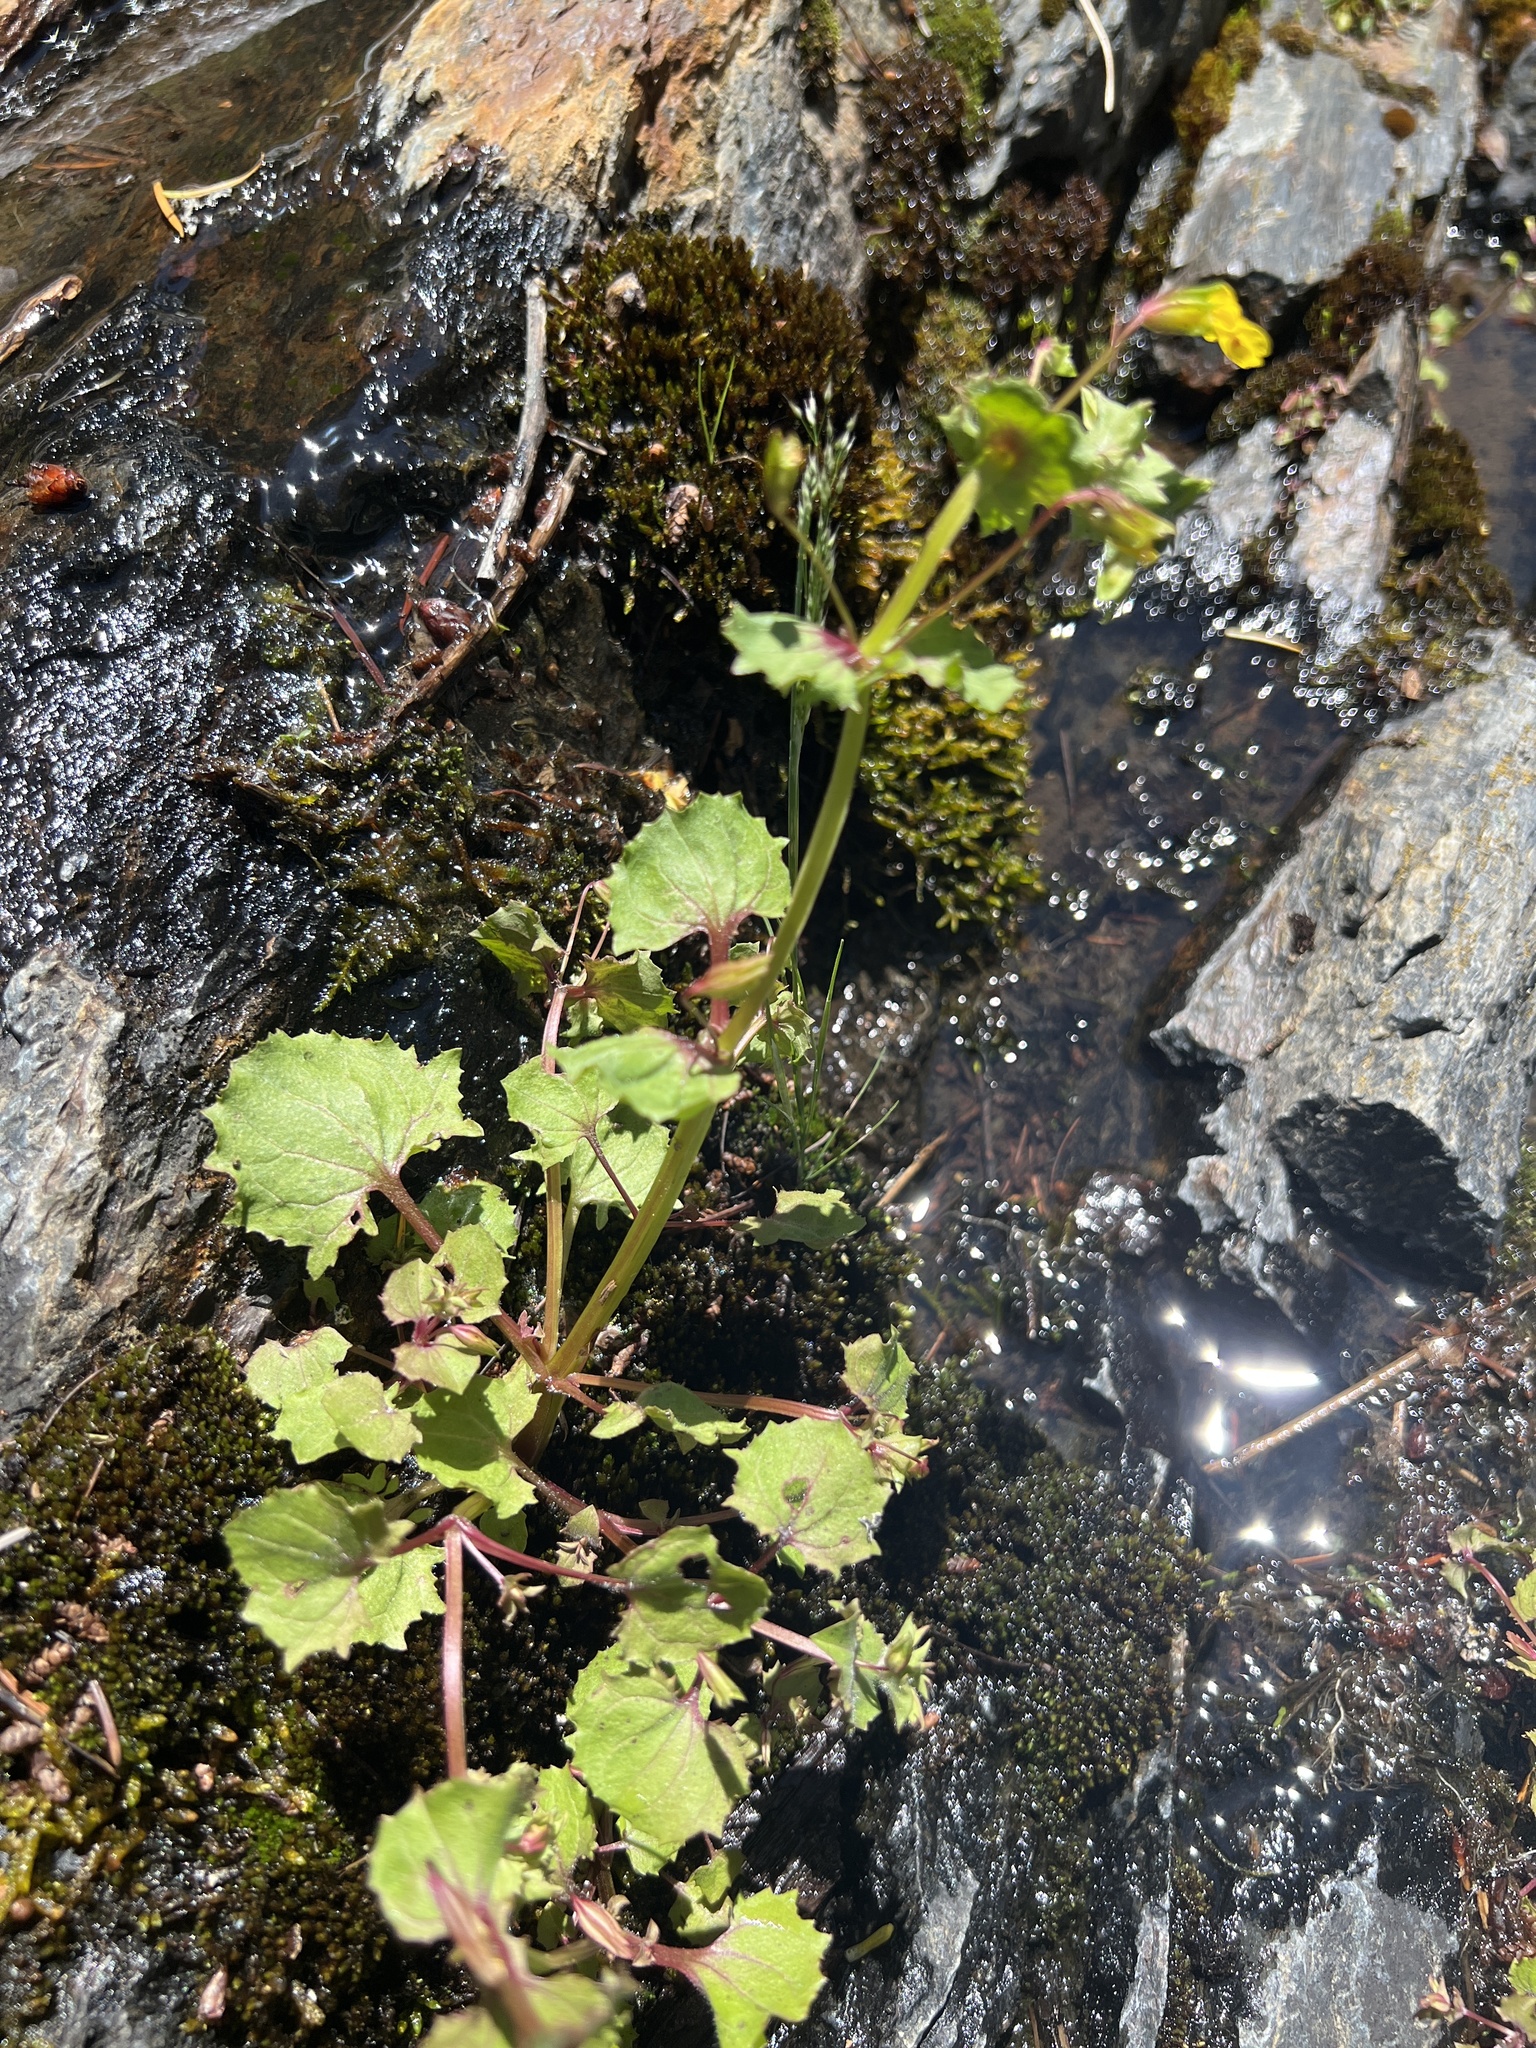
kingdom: Plantae
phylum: Tracheophyta
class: Magnoliopsida
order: Lamiales
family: Phrymaceae
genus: Erythranthe
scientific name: Erythranthe nasuta
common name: Sooke monkeyflower
